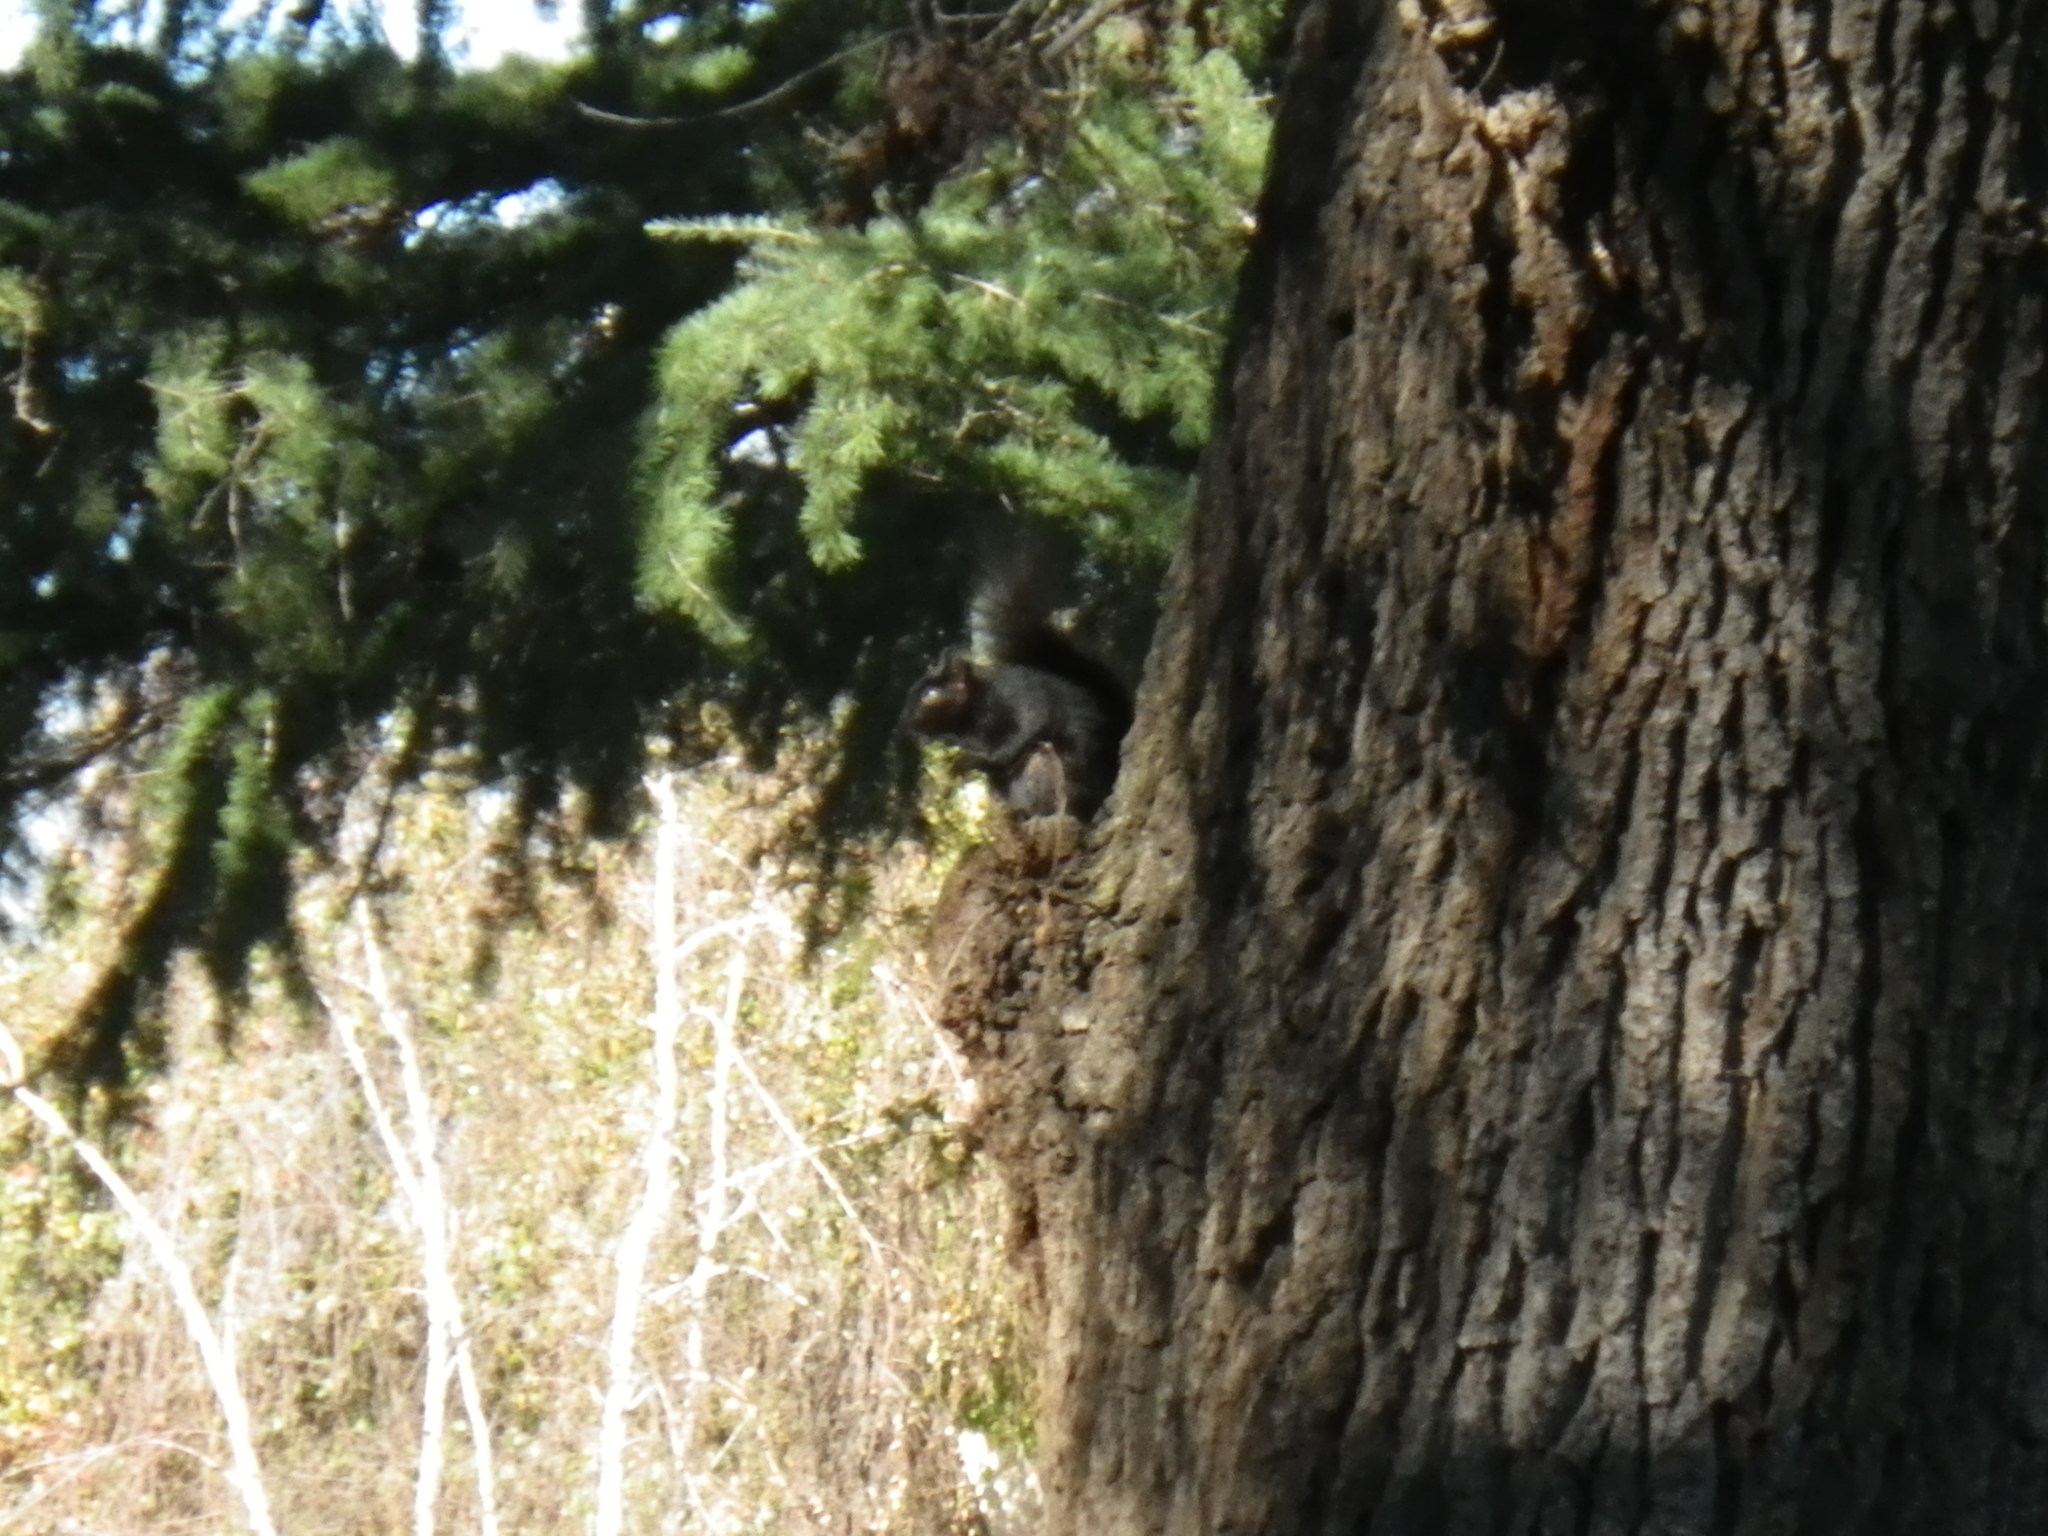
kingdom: Animalia
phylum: Chordata
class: Mammalia
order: Rodentia
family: Sciuridae
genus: Sciurus
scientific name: Sciurus carolinensis
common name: Eastern gray squirrel
